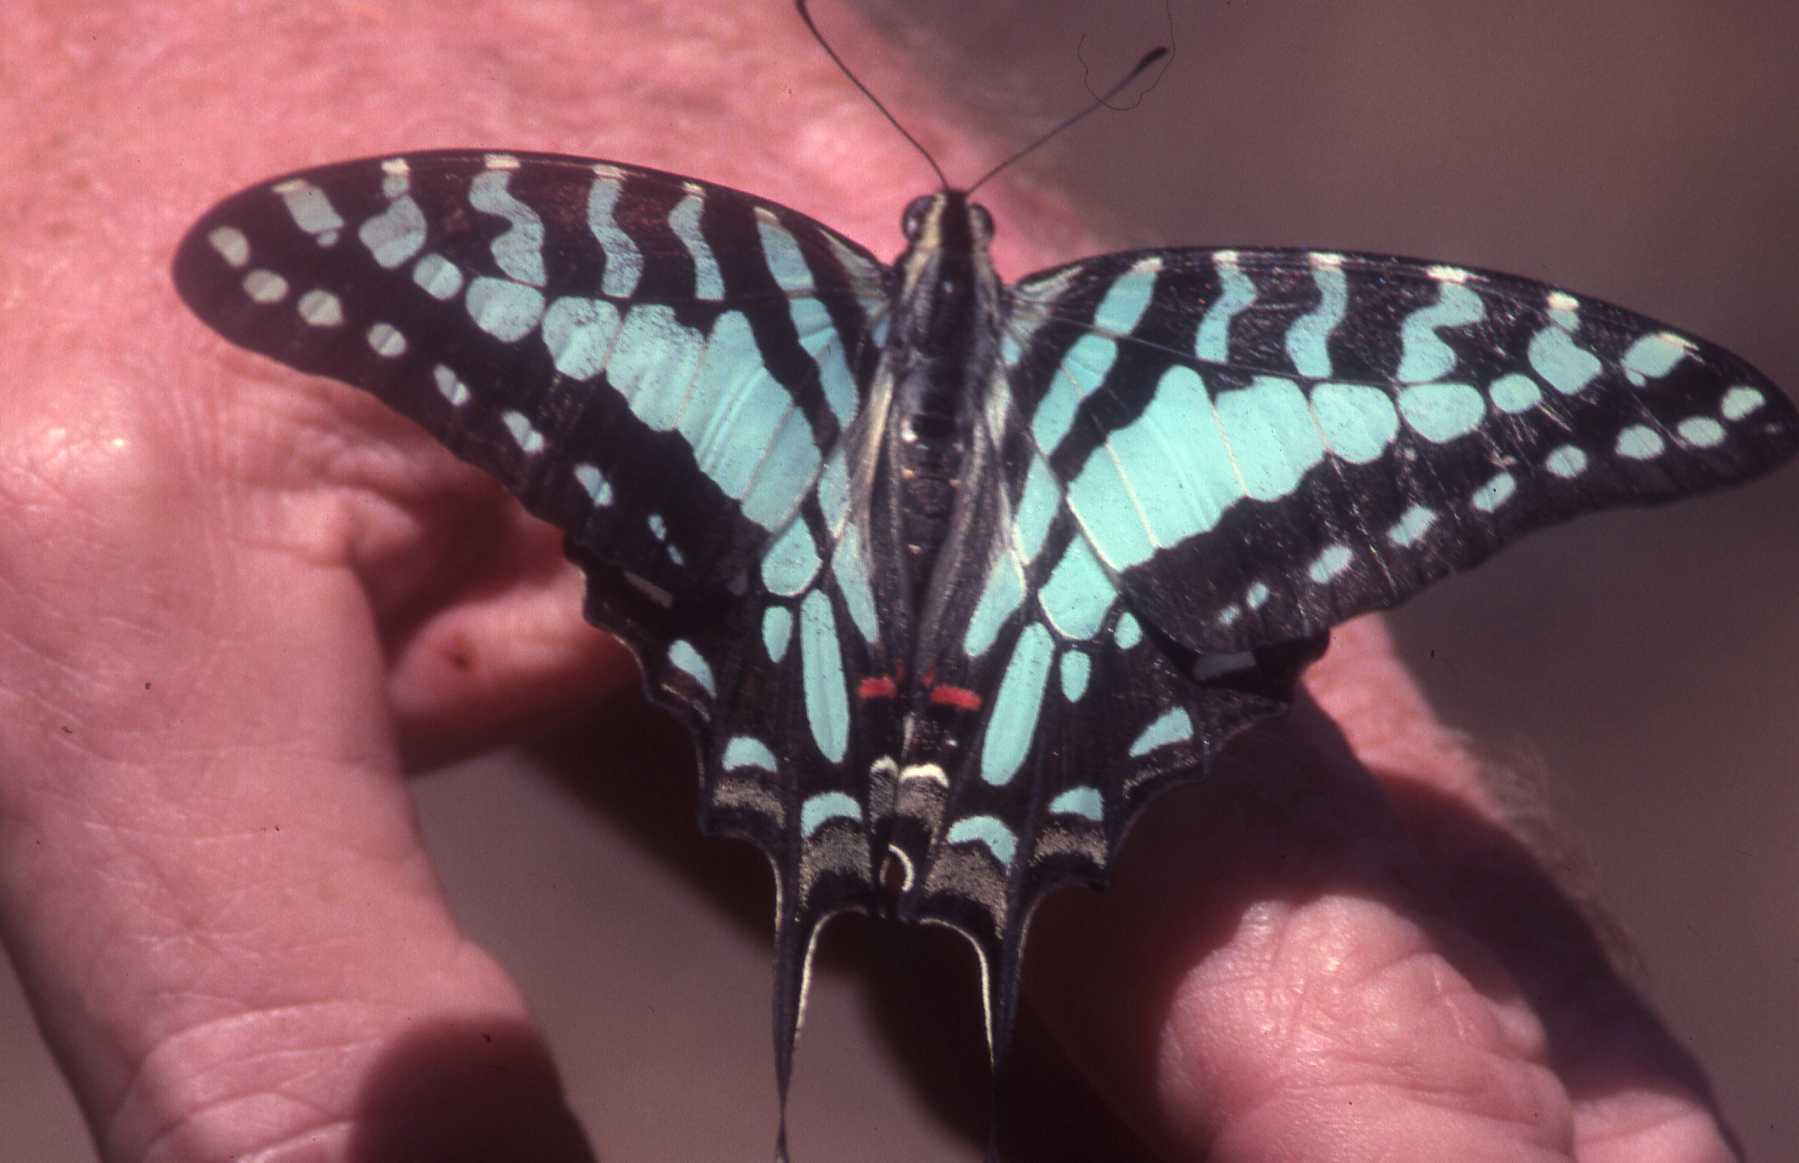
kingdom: Animalia
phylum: Arthropoda
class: Insecta
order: Lepidoptera
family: Papilionidae
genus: Graphium
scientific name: Graphium antheus
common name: Large striped swordtail
